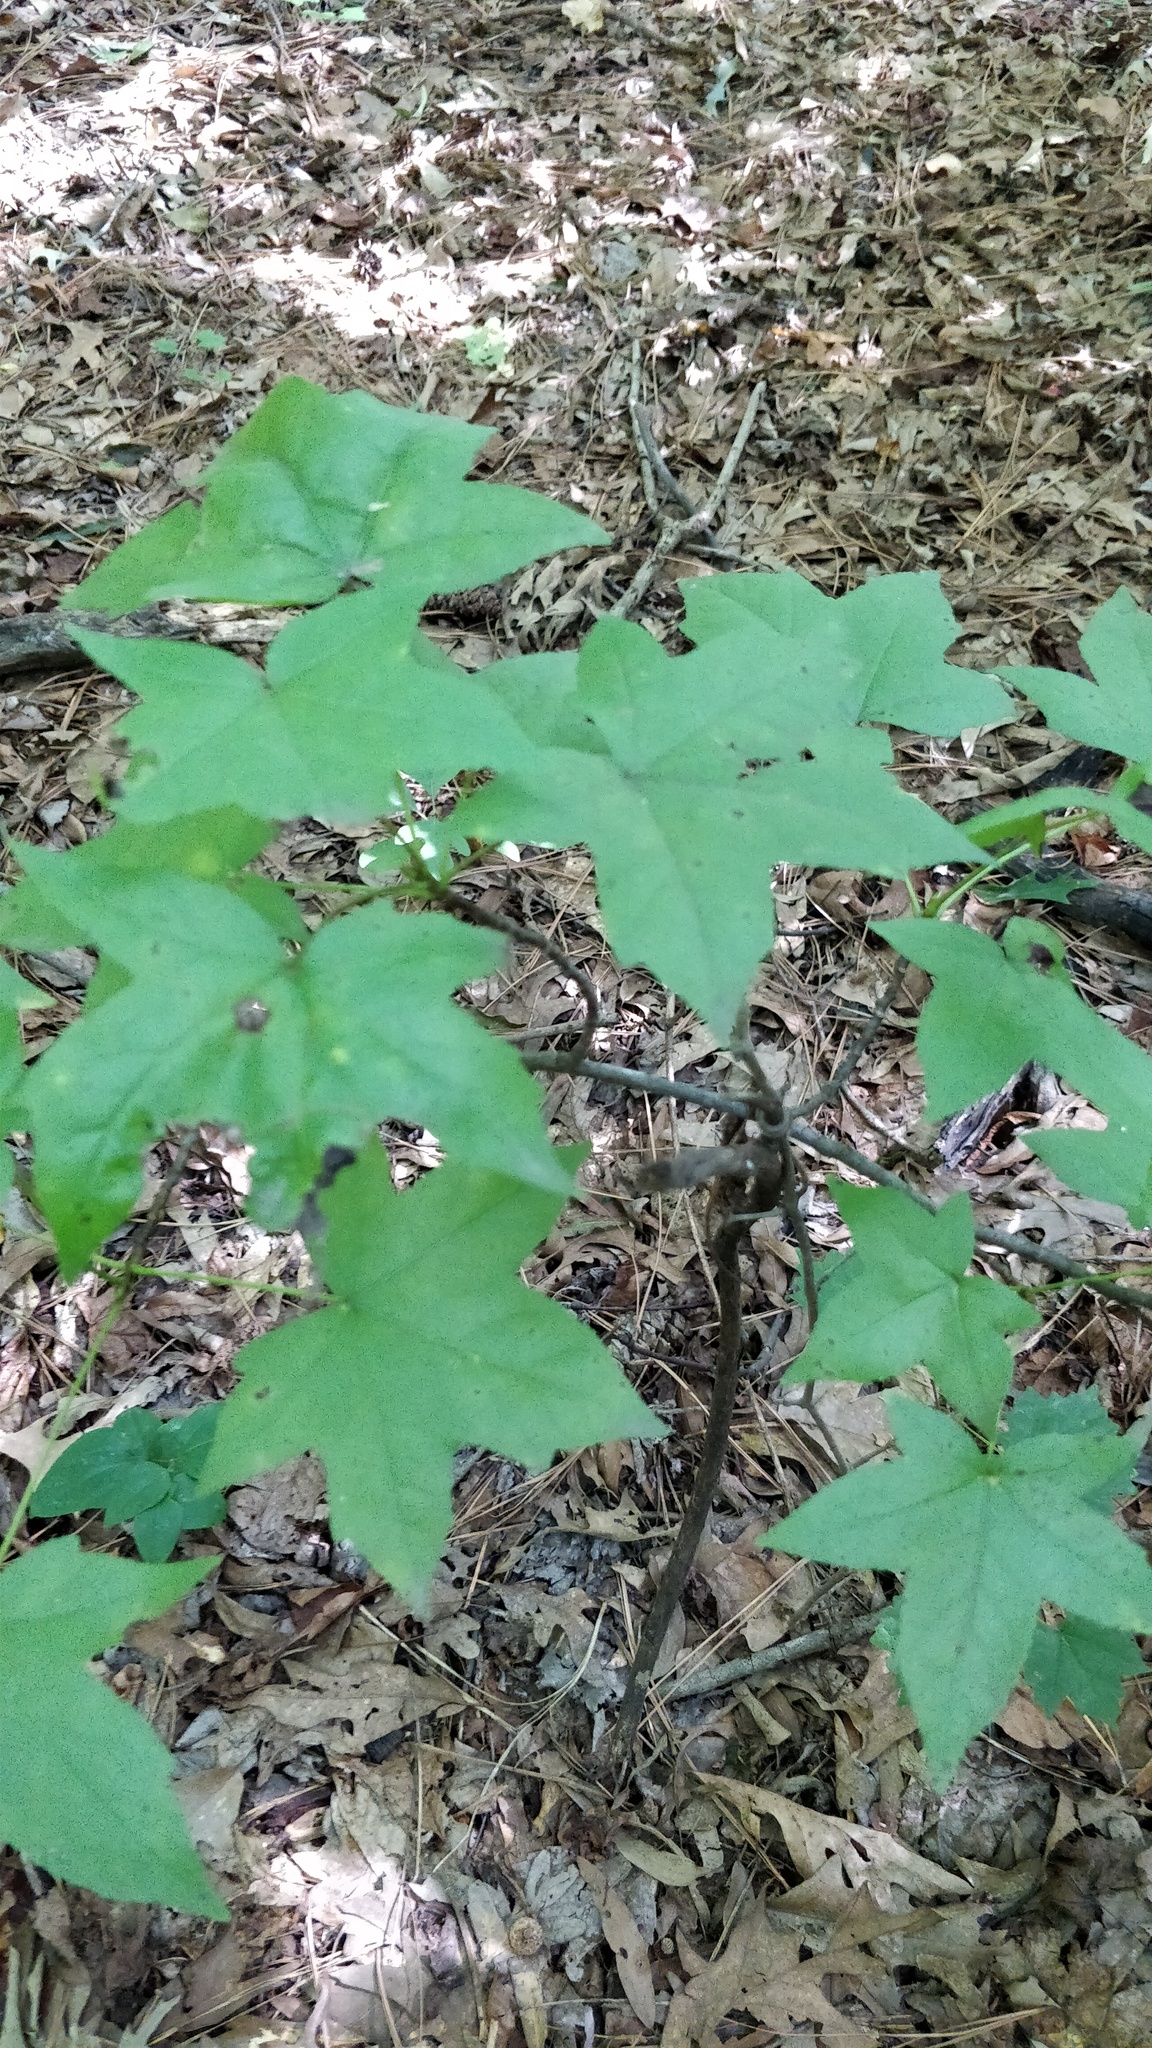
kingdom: Plantae
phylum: Tracheophyta
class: Magnoliopsida
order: Saxifragales
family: Altingiaceae
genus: Liquidambar
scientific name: Liquidambar styraciflua
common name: Sweet gum
